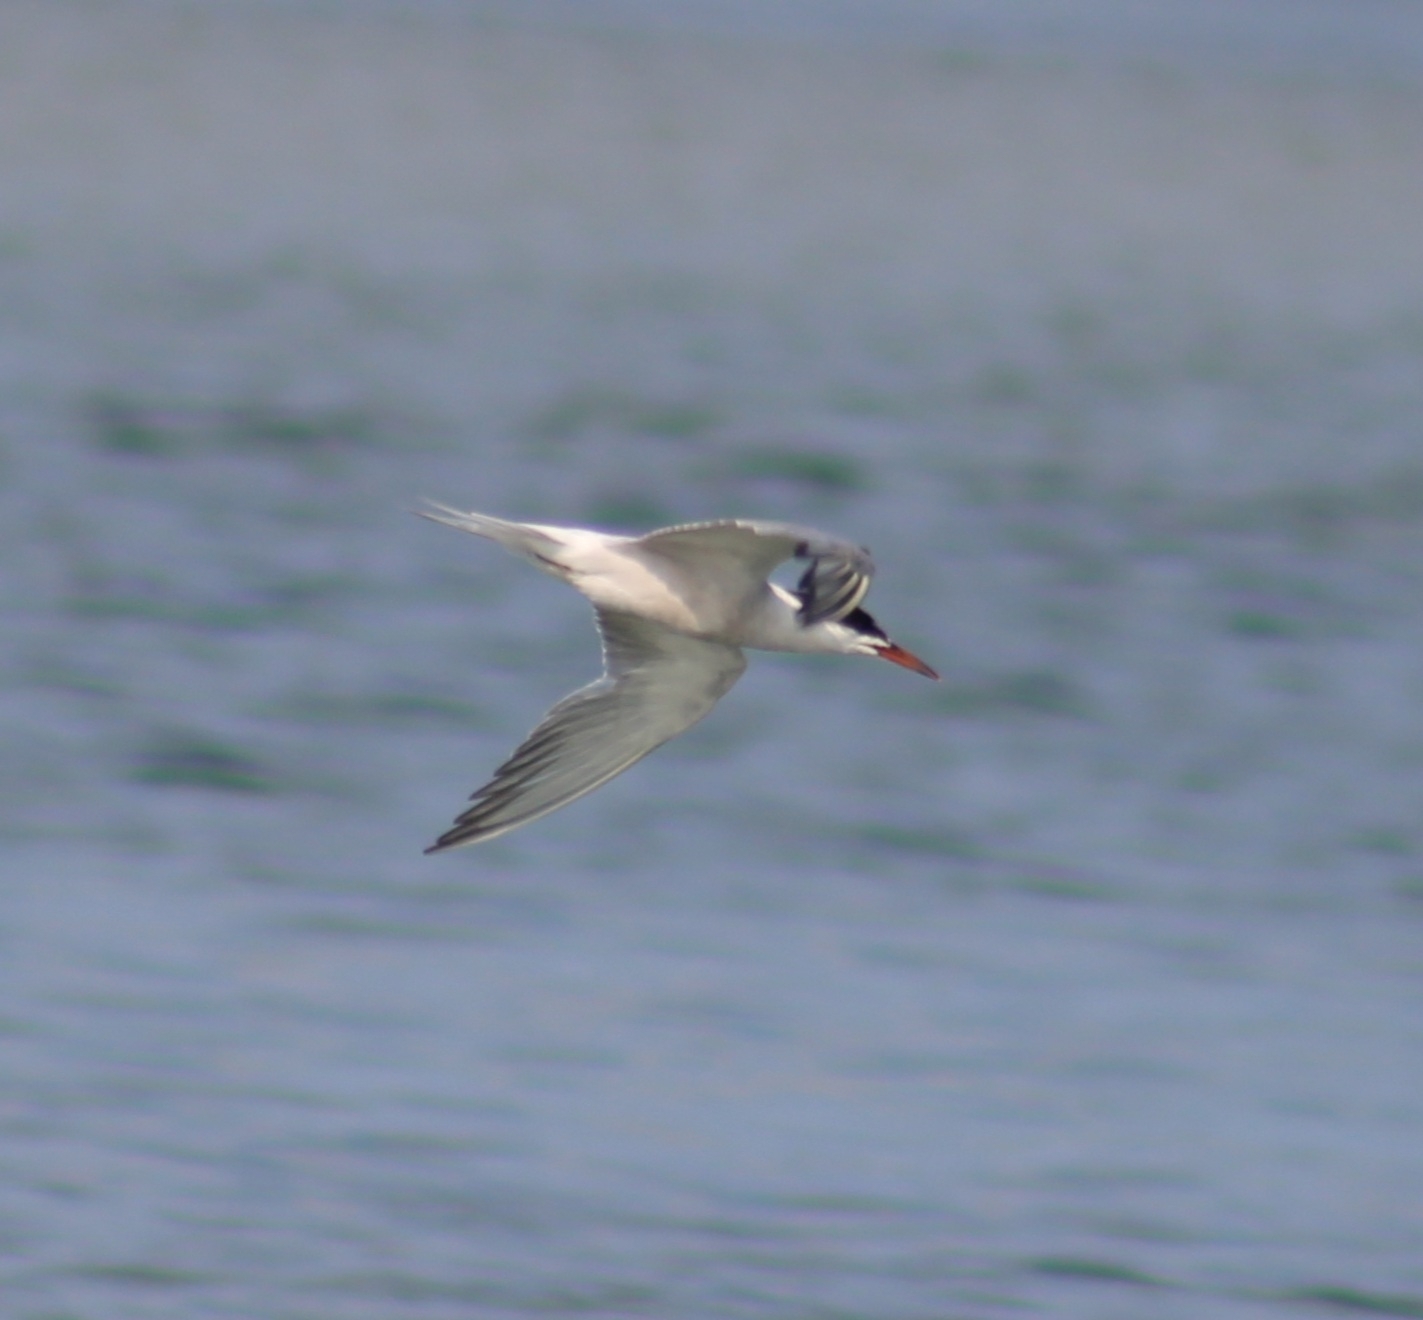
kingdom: Animalia
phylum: Chordata
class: Aves
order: Charadriiformes
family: Laridae
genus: Sterna
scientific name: Sterna hirundo
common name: Common tern
